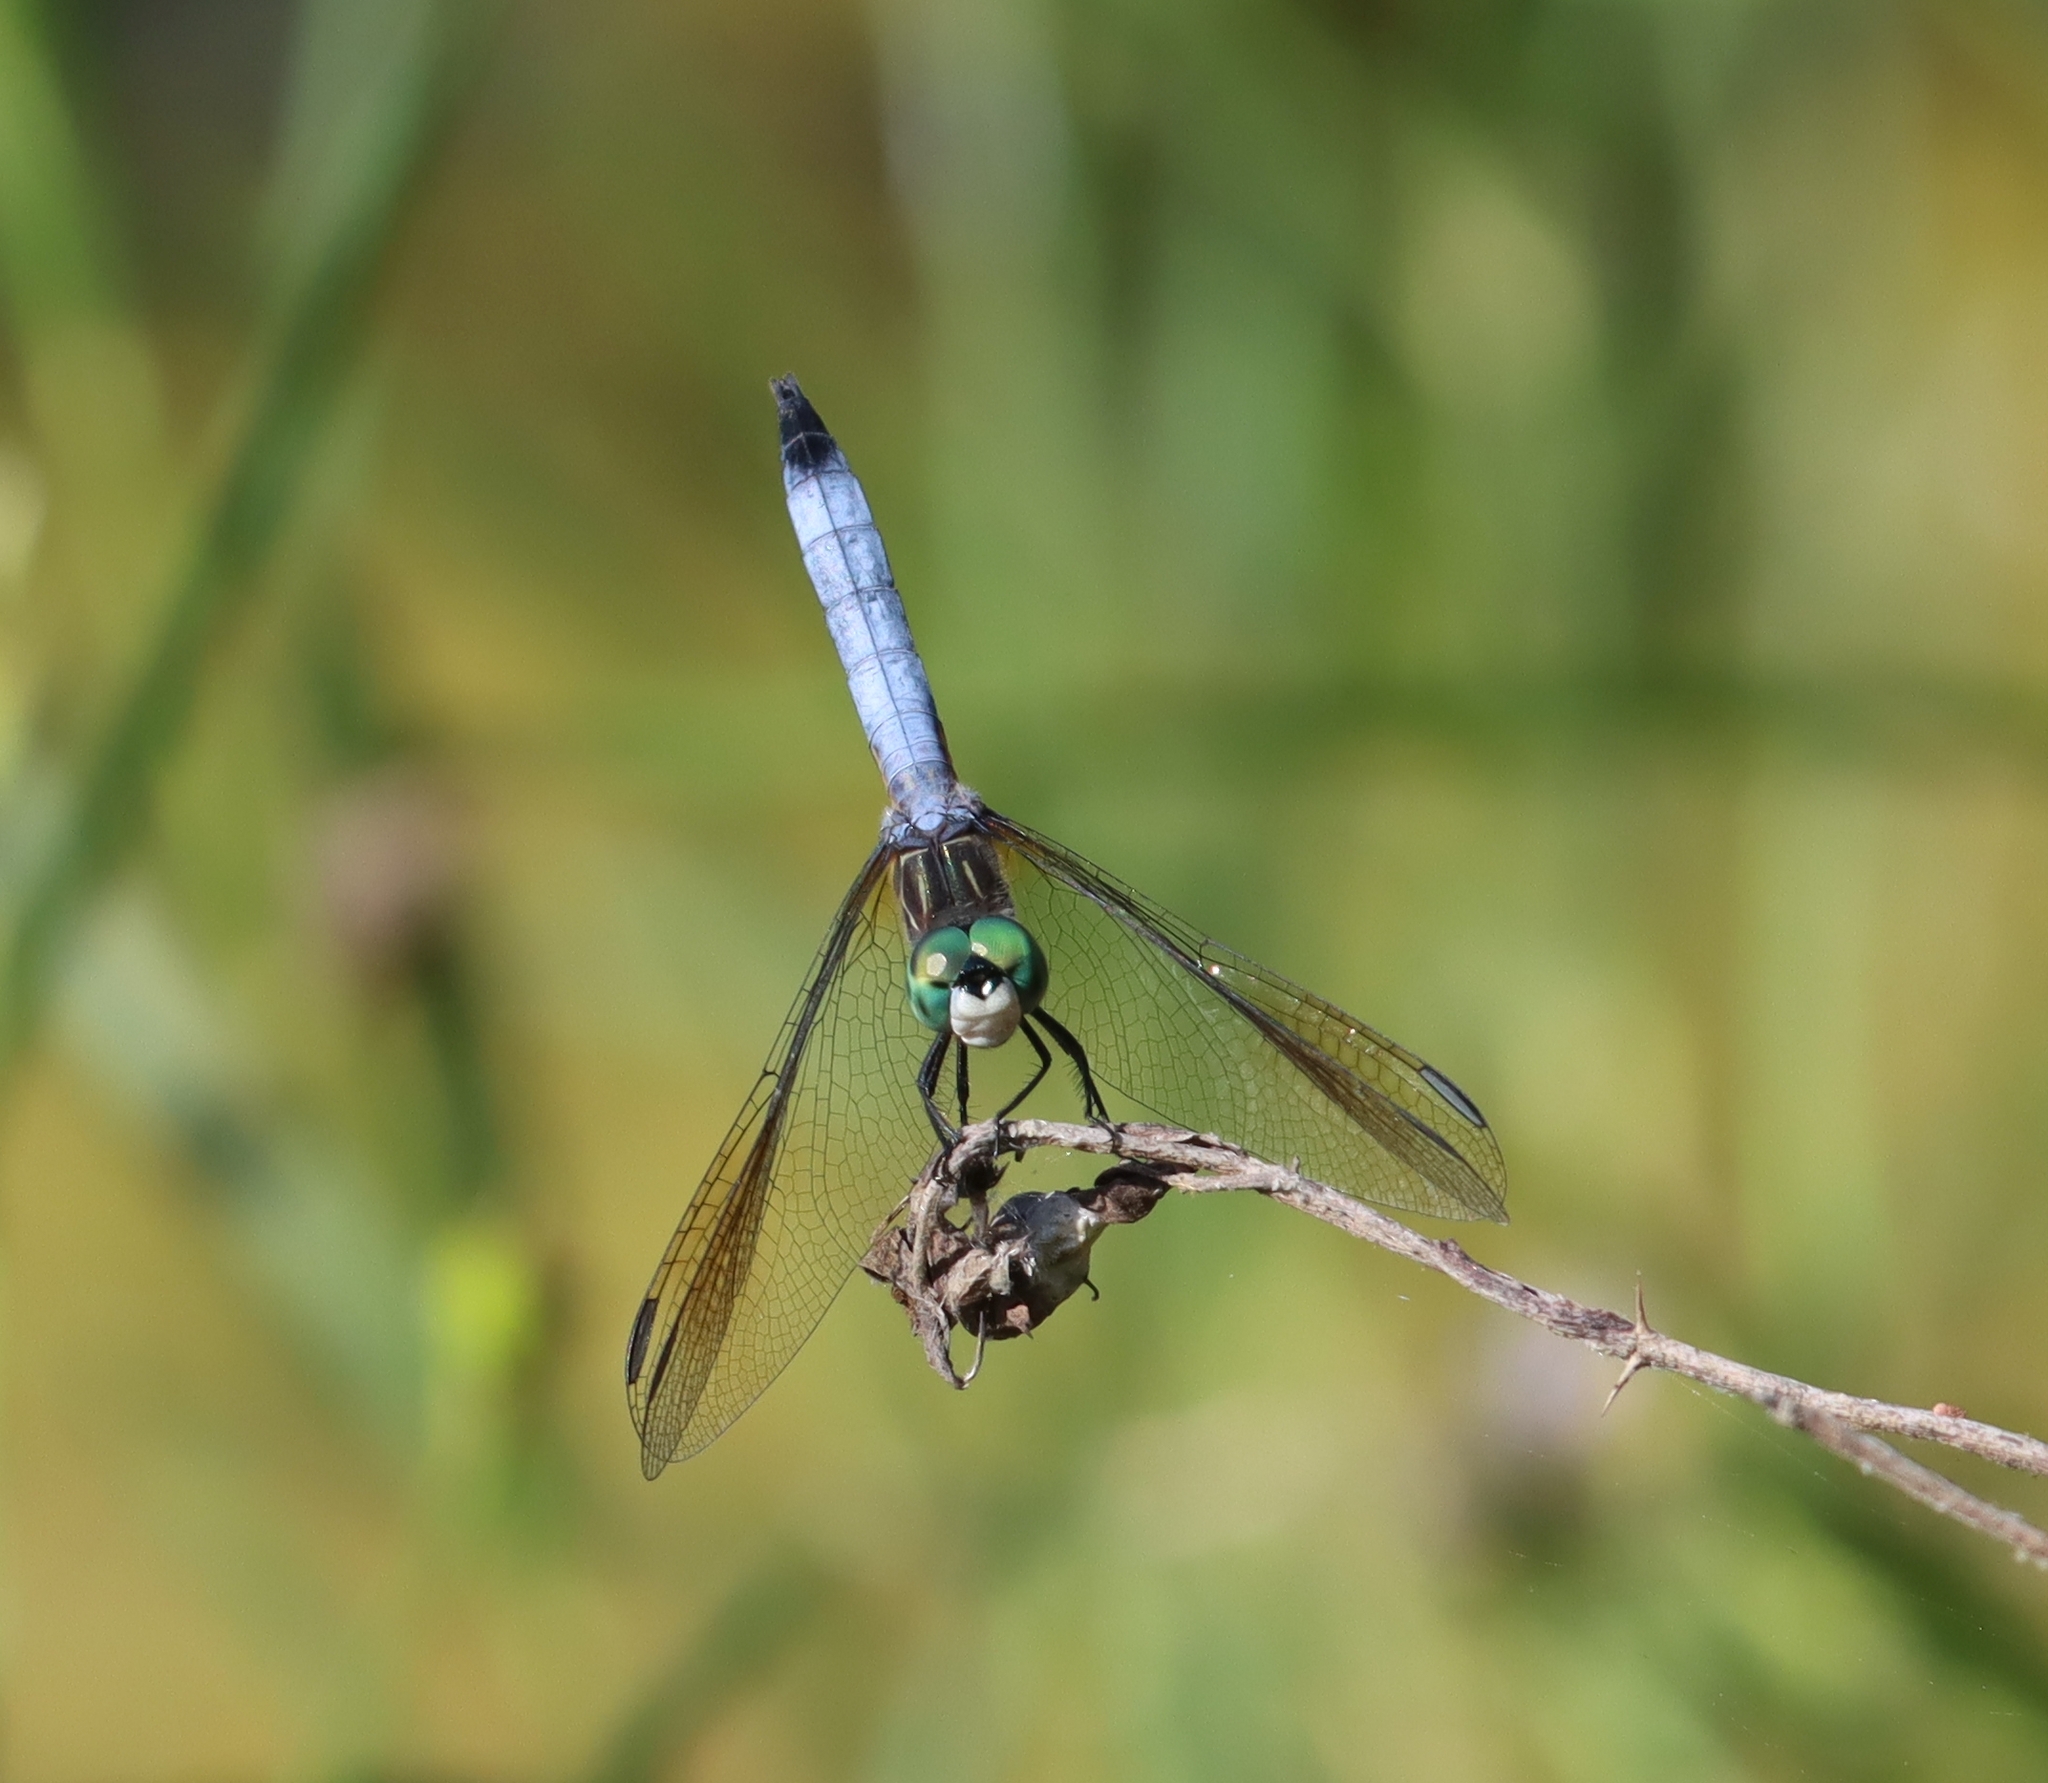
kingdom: Animalia
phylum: Arthropoda
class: Insecta
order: Odonata
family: Libellulidae
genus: Pachydiplax
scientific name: Pachydiplax longipennis
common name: Blue dasher
